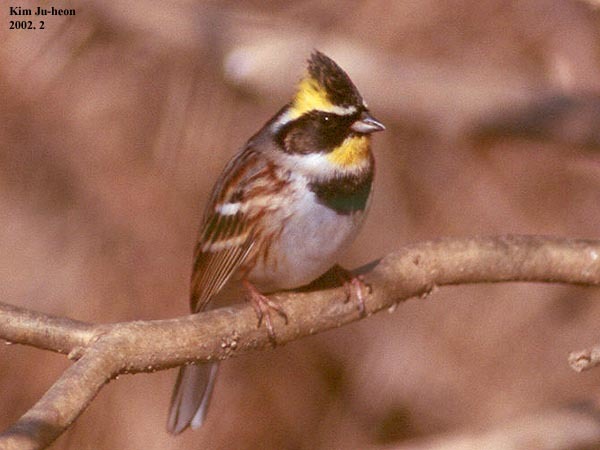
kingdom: Animalia
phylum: Chordata
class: Aves
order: Passeriformes
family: Emberizidae
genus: Emberiza
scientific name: Emberiza elegans
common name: Yellow-throated bunting
